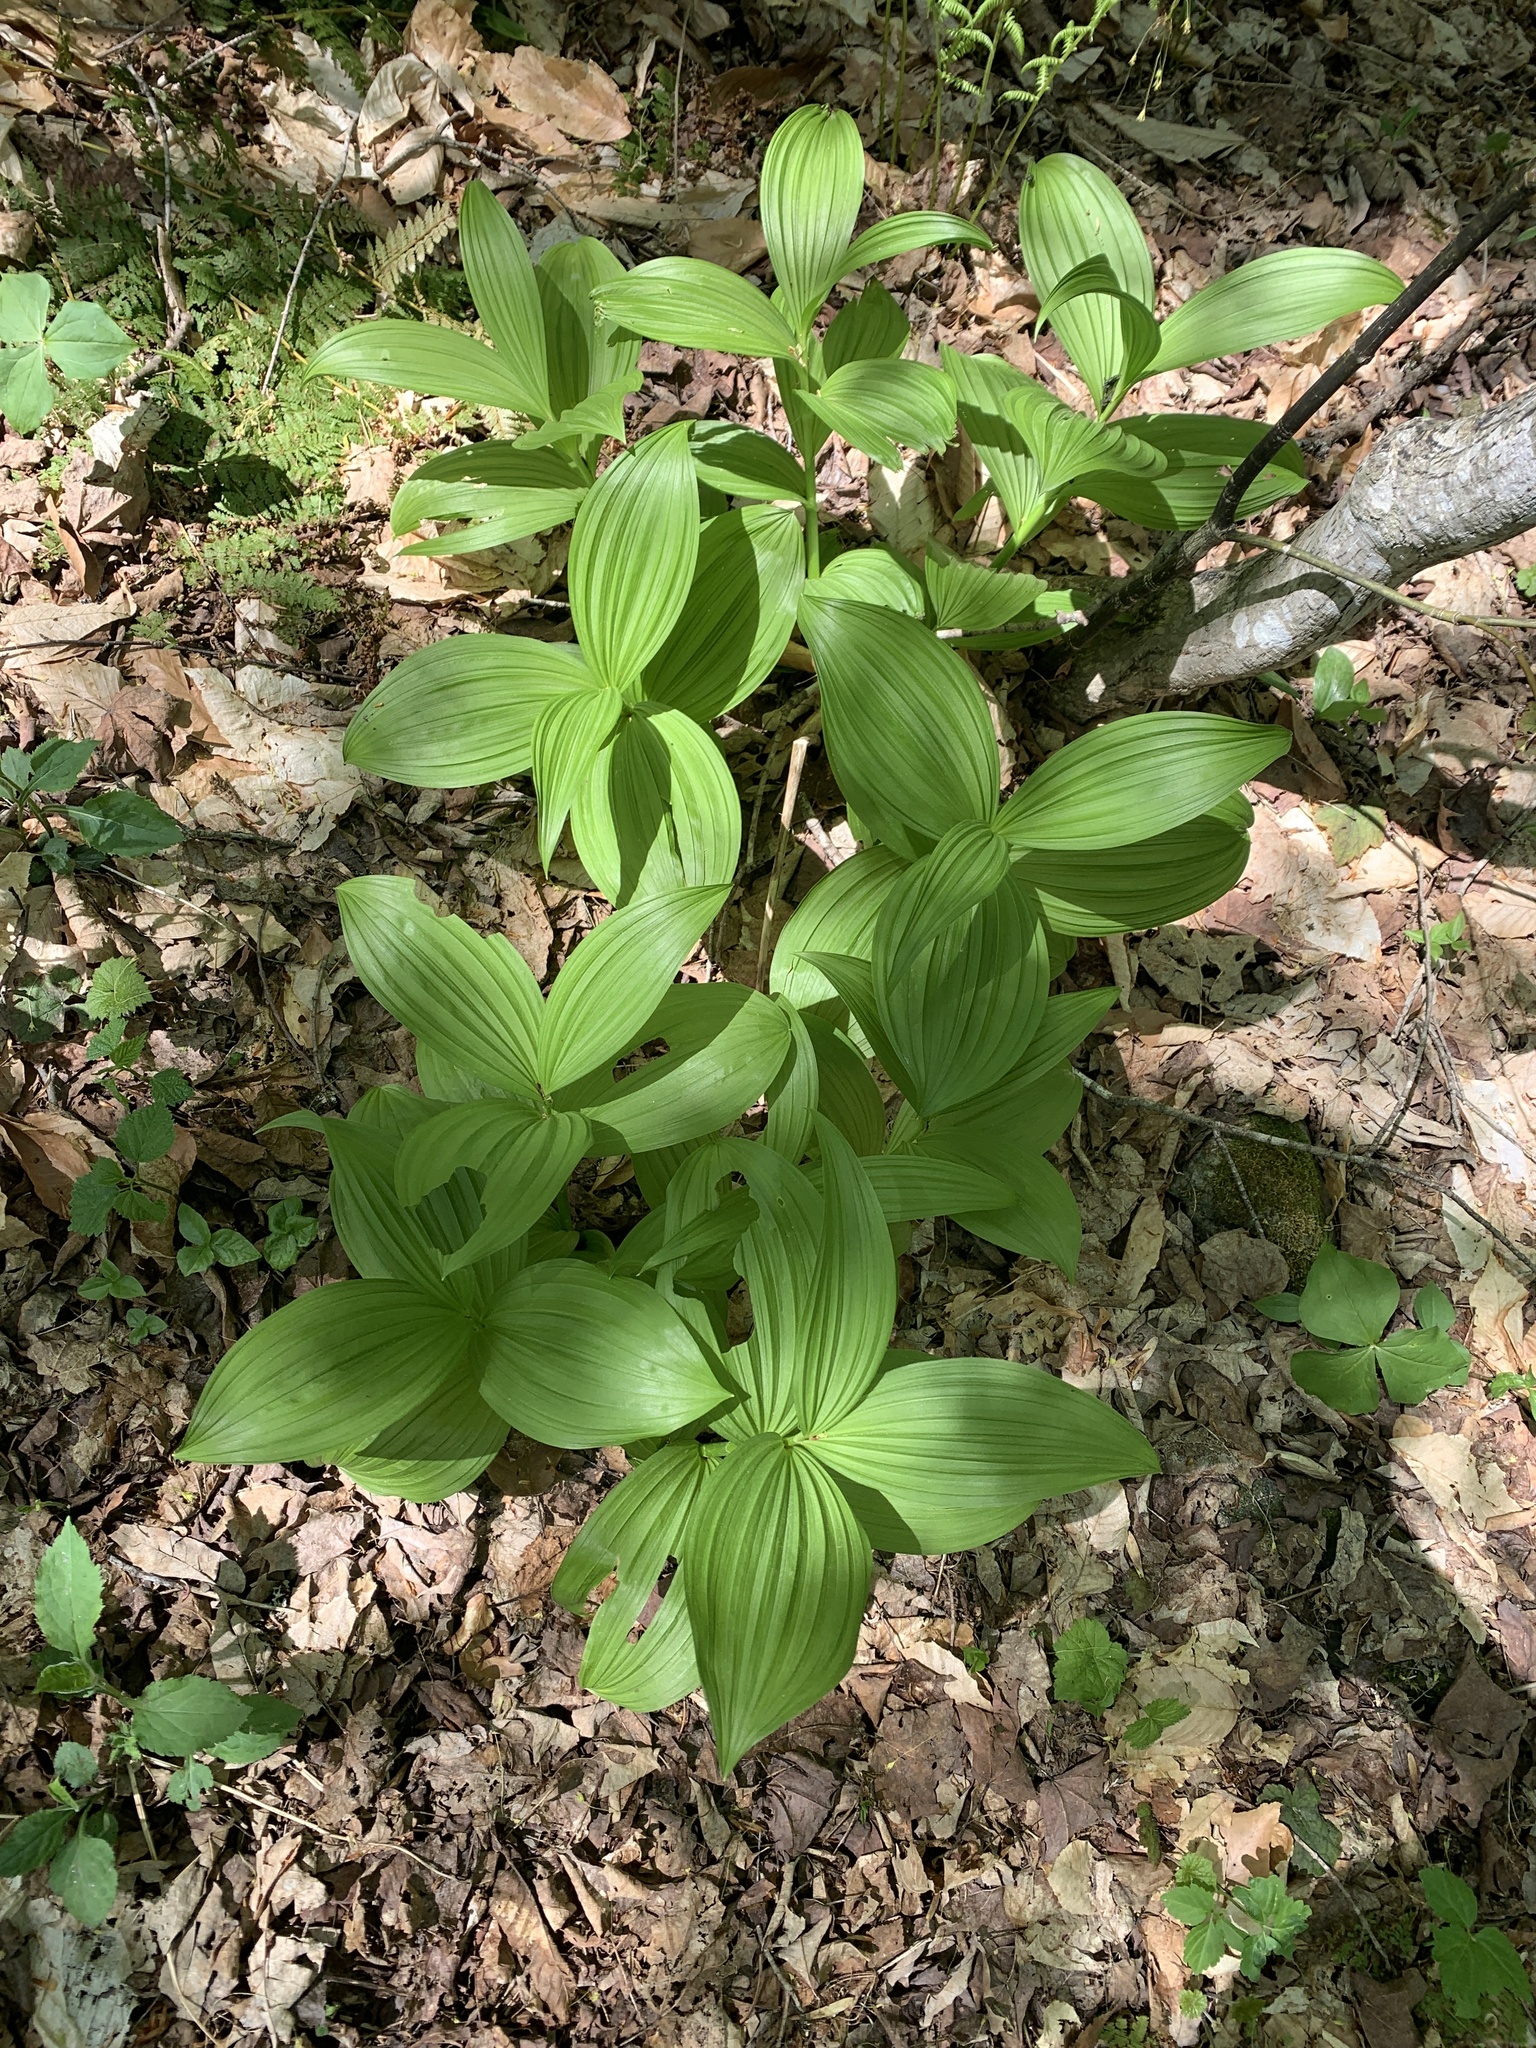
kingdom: Plantae
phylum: Tracheophyta
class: Liliopsida
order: Liliales
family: Melanthiaceae
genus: Veratrum
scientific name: Veratrum viride
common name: American false hellebore
